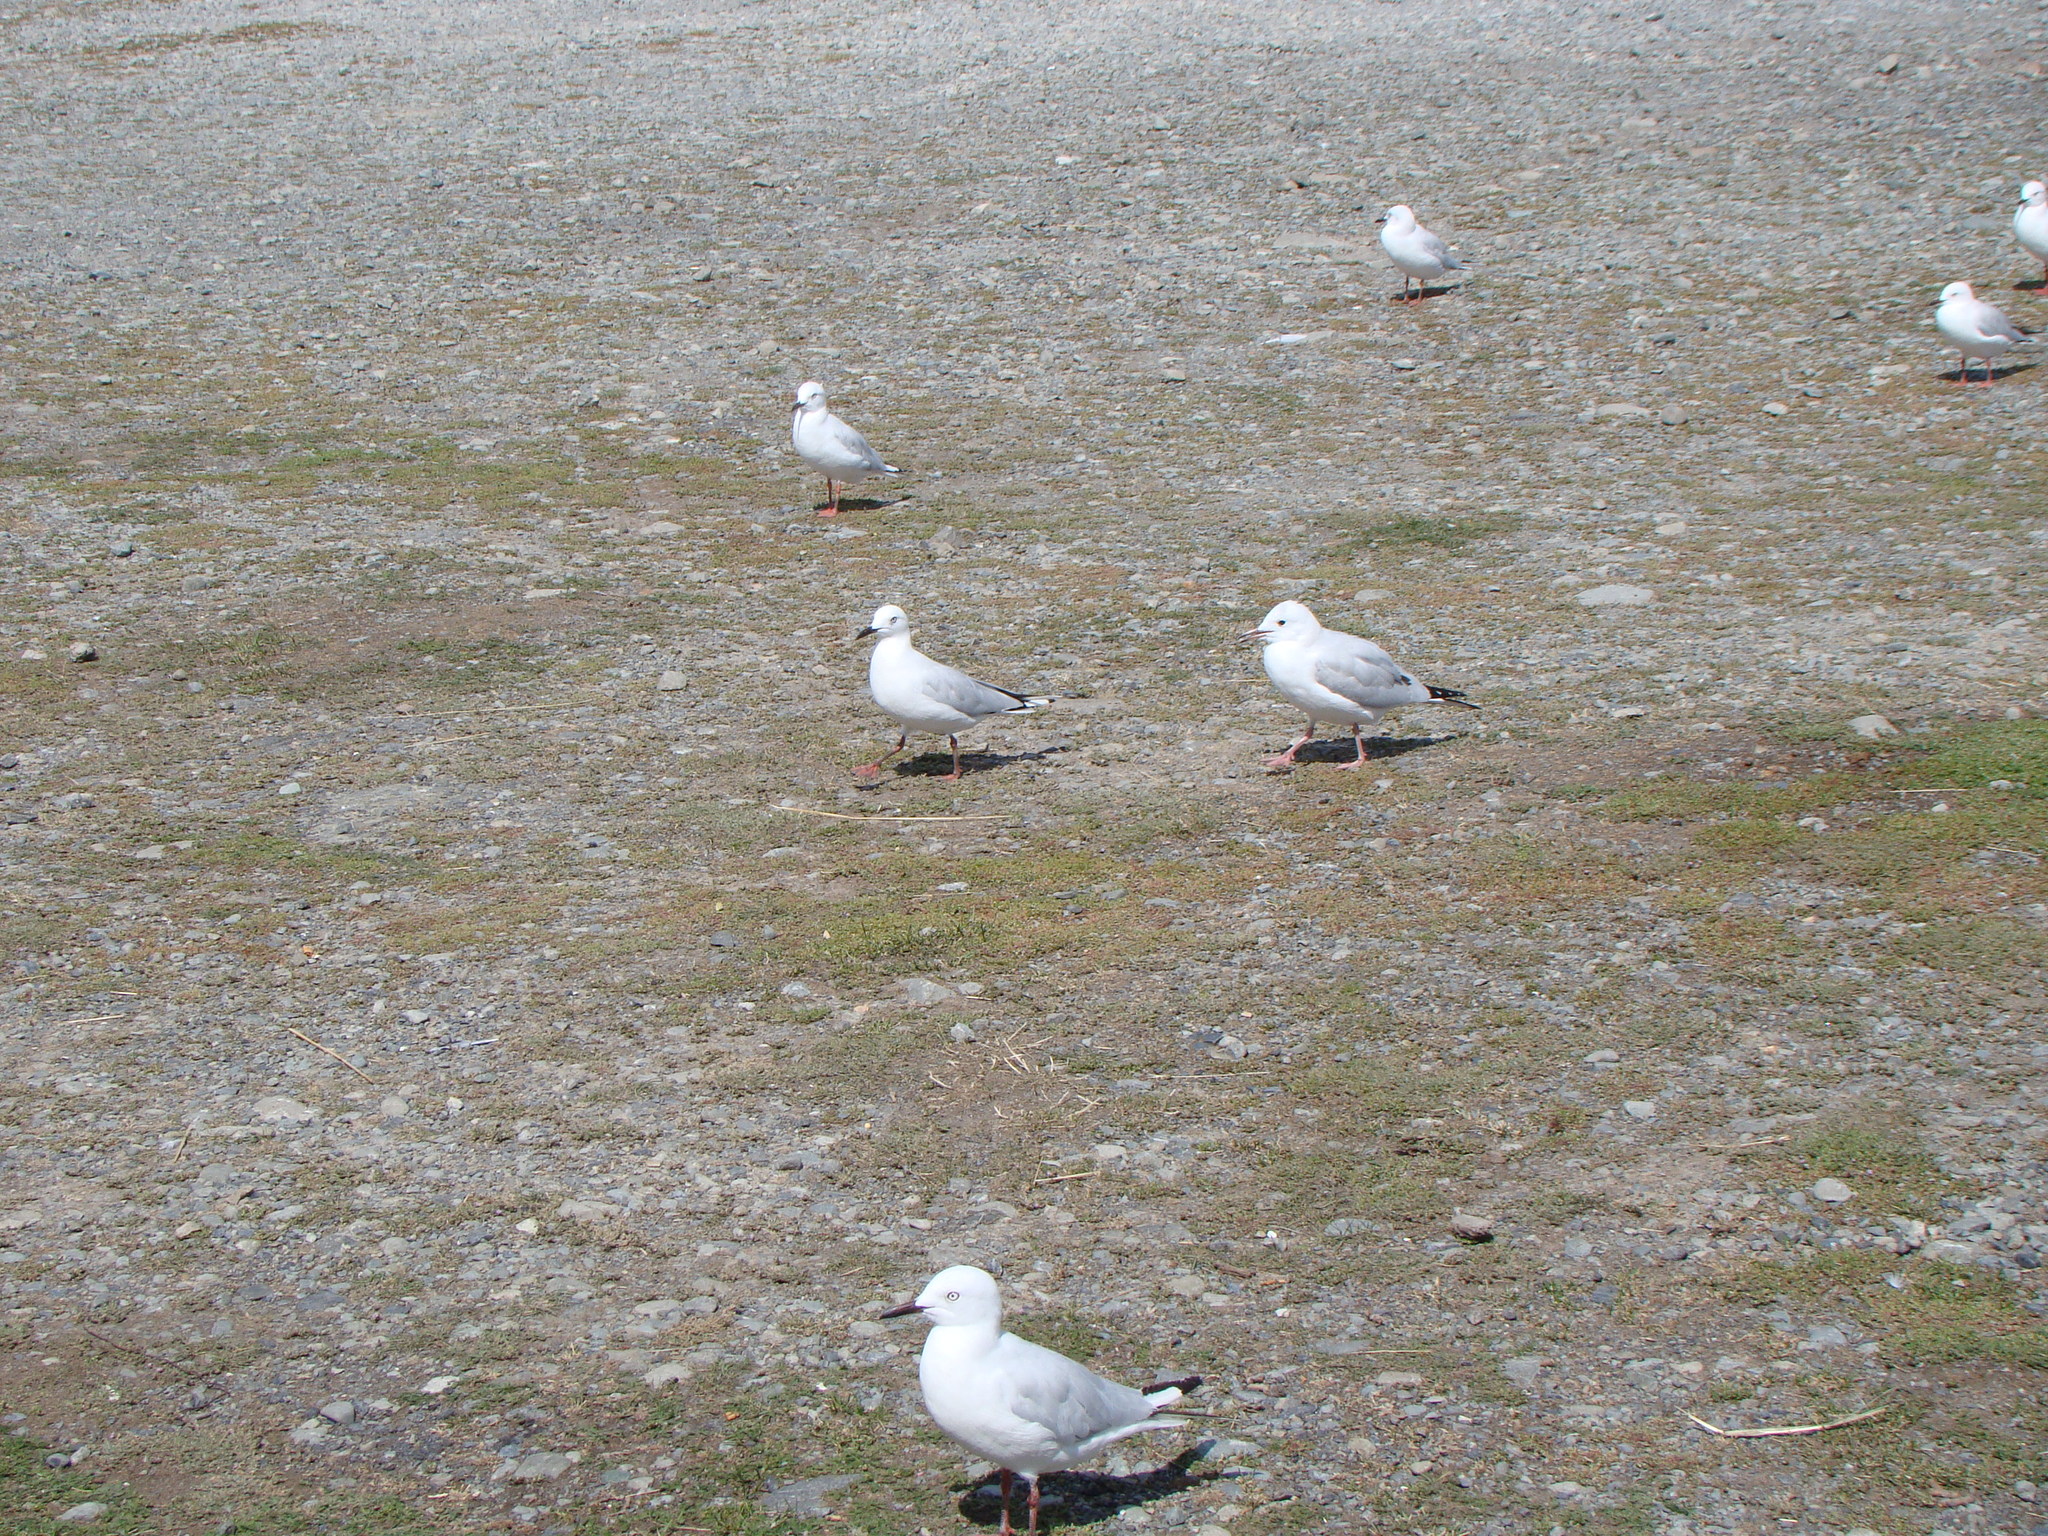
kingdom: Animalia
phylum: Chordata
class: Aves
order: Charadriiformes
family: Laridae
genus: Chroicocephalus
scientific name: Chroicocephalus bulleri
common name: Black-billed gull
